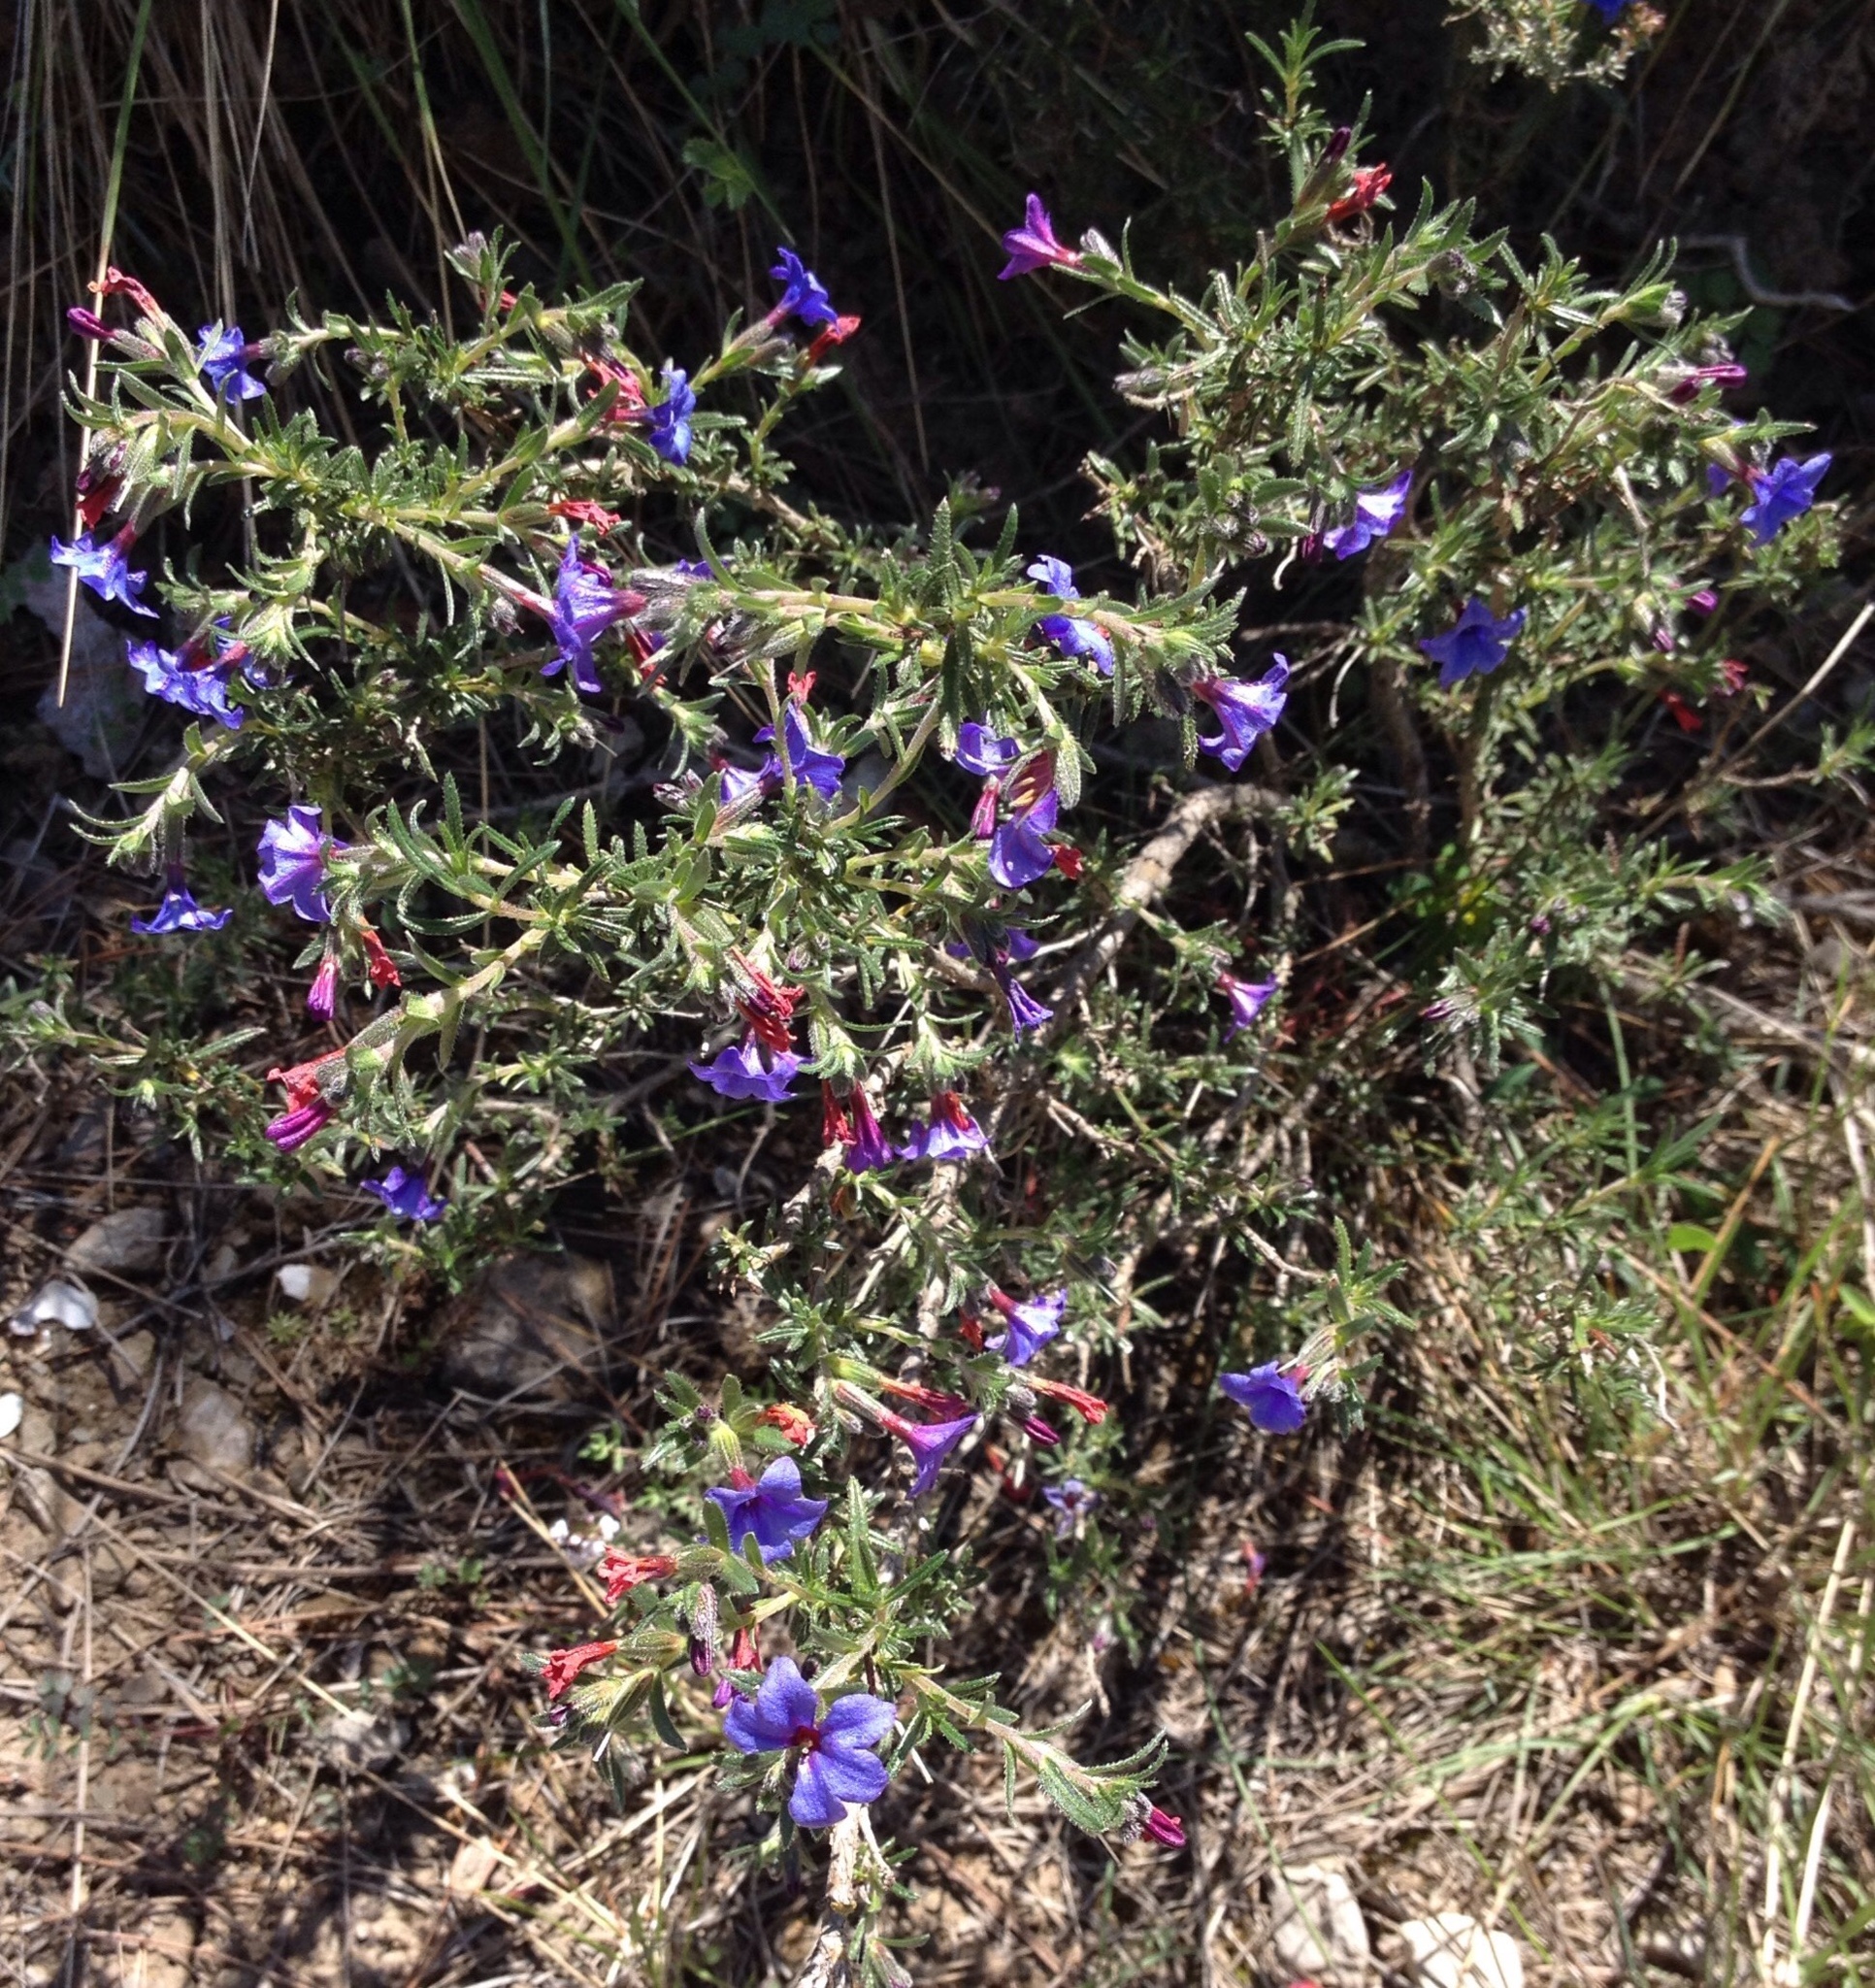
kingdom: Plantae
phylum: Tracheophyta
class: Magnoliopsida
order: Boraginales
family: Boraginaceae
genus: Lithodora
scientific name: Lithodora fruticosa
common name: Shrubby gromwell
